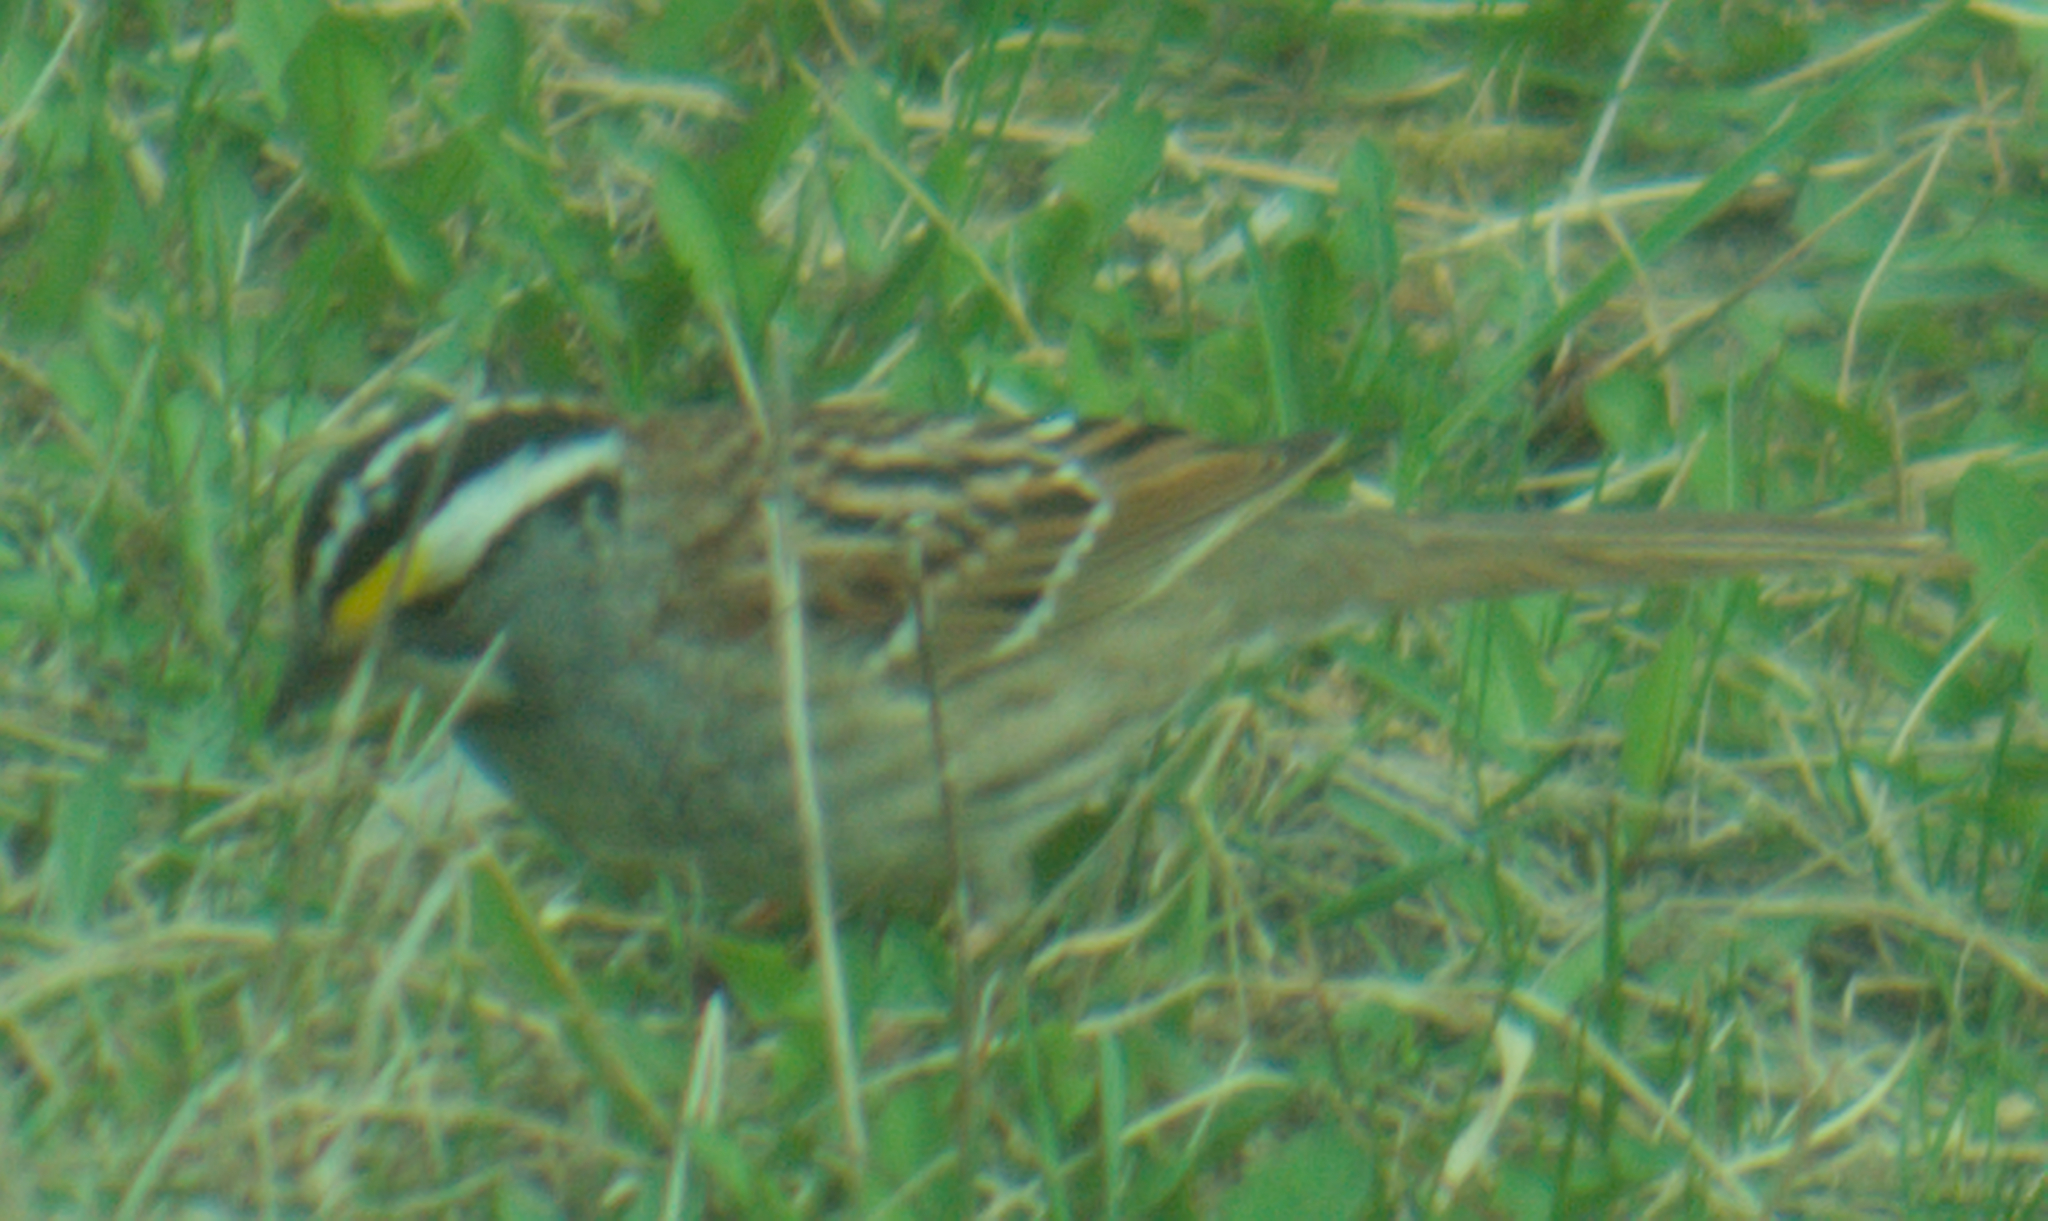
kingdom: Animalia
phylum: Chordata
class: Aves
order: Passeriformes
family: Passerellidae
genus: Zonotrichia
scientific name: Zonotrichia albicollis
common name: White-throated sparrow
